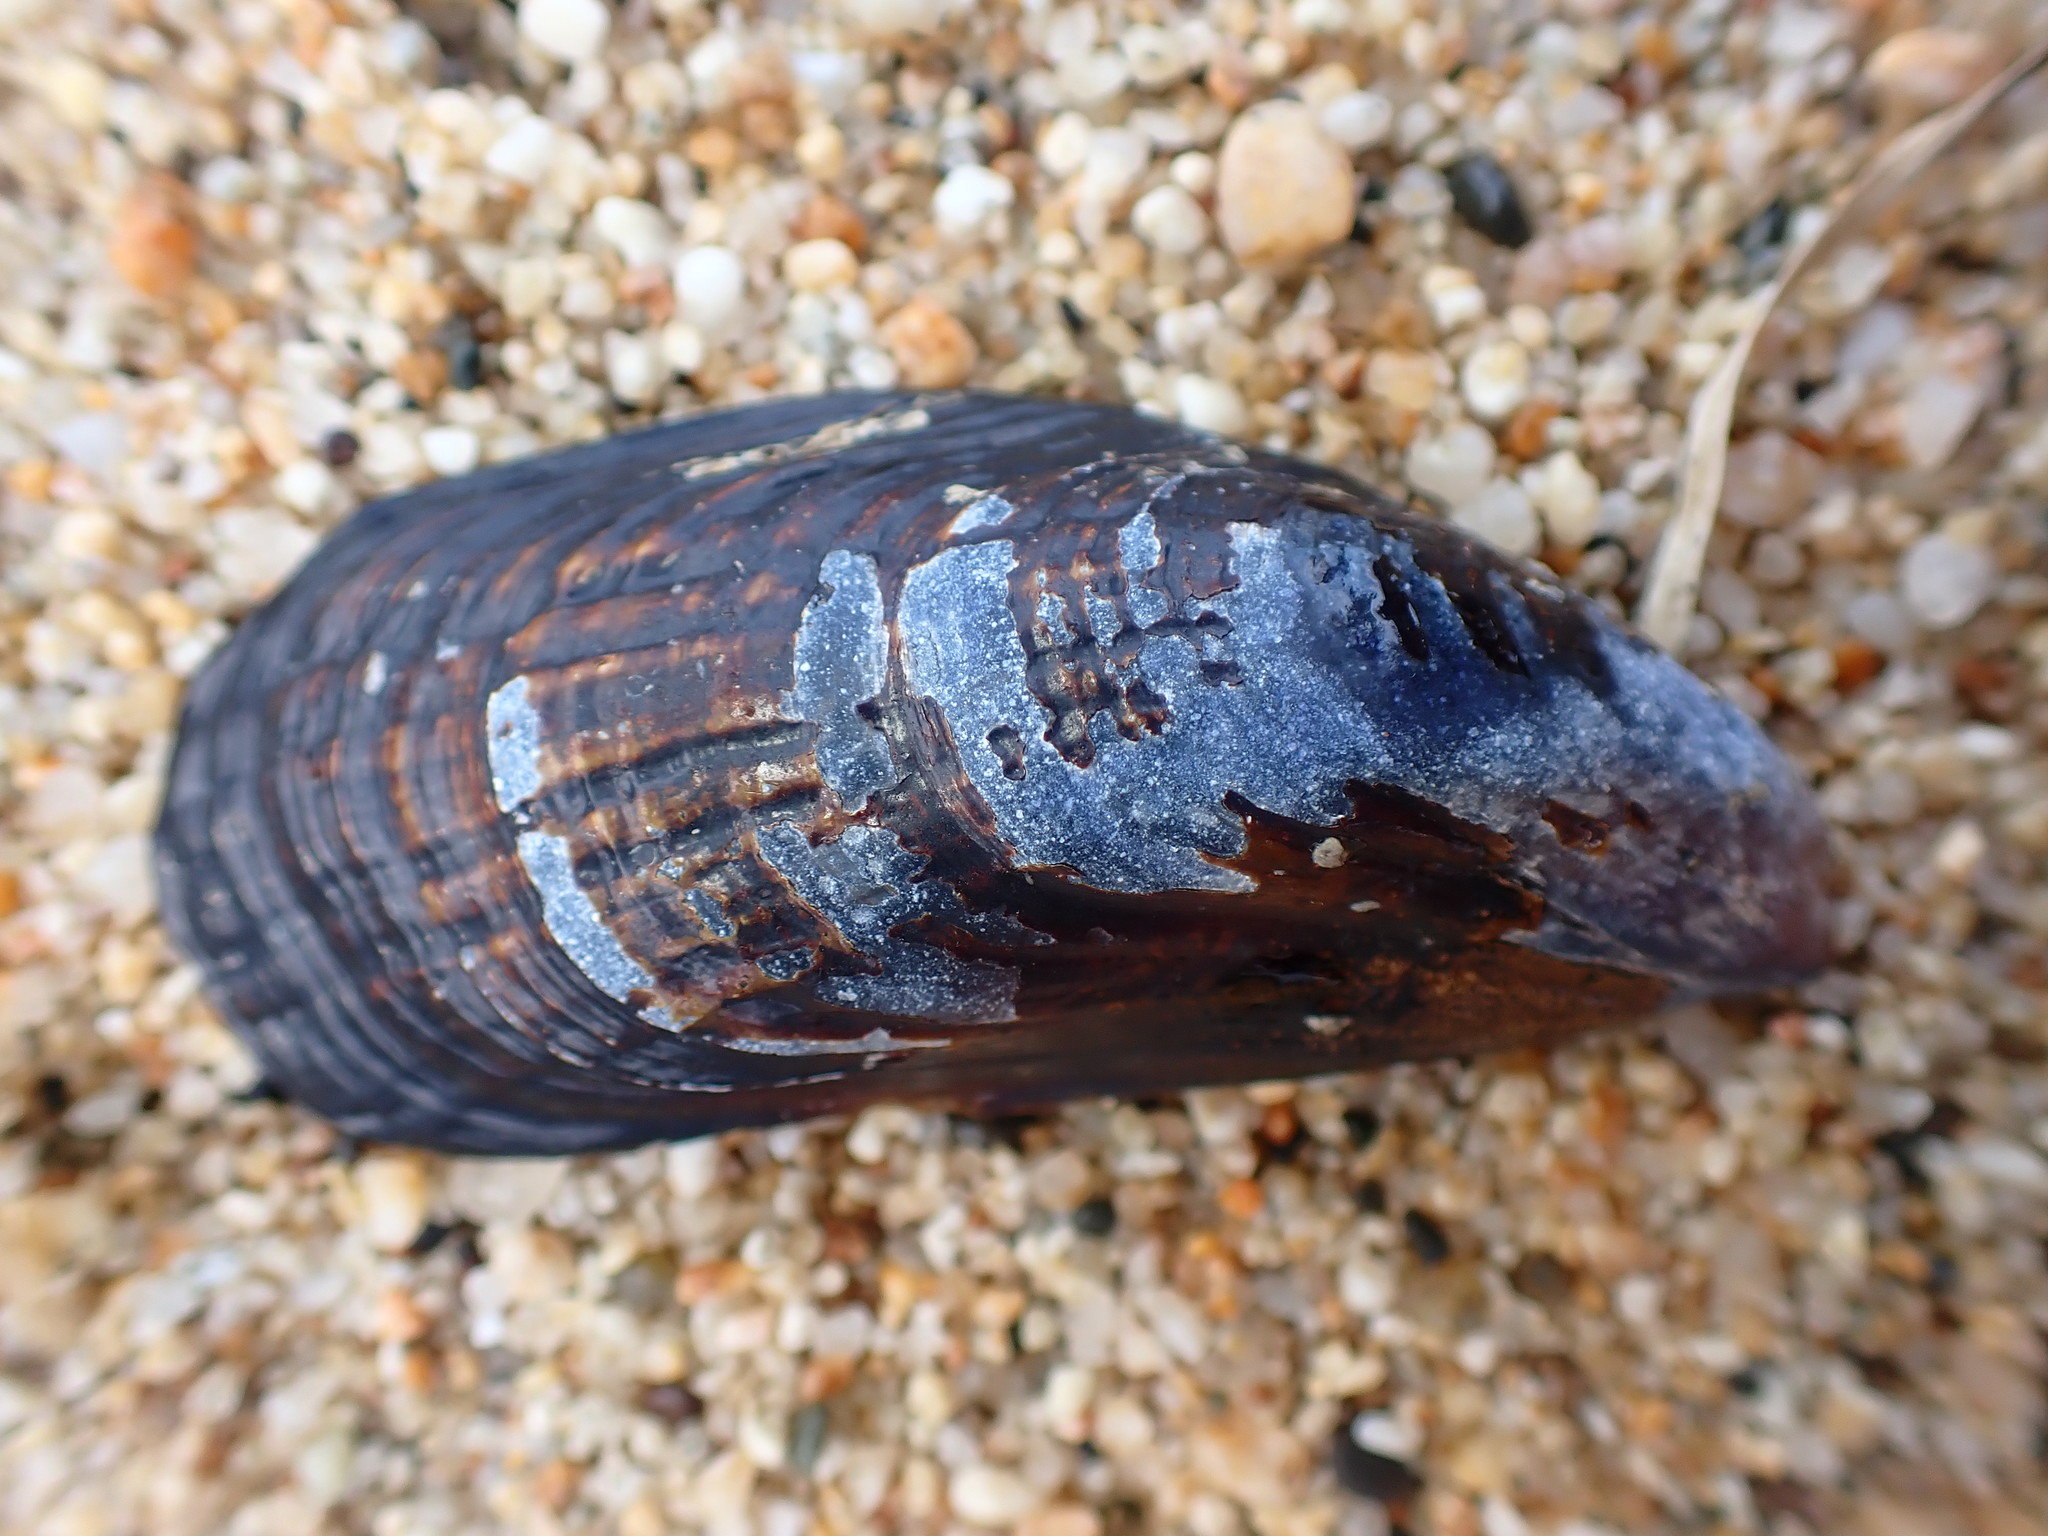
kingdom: Animalia
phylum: Mollusca
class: Bivalvia
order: Mytilida
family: Mytilidae
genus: Mytilus
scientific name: Mytilus californianus
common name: California mussel
